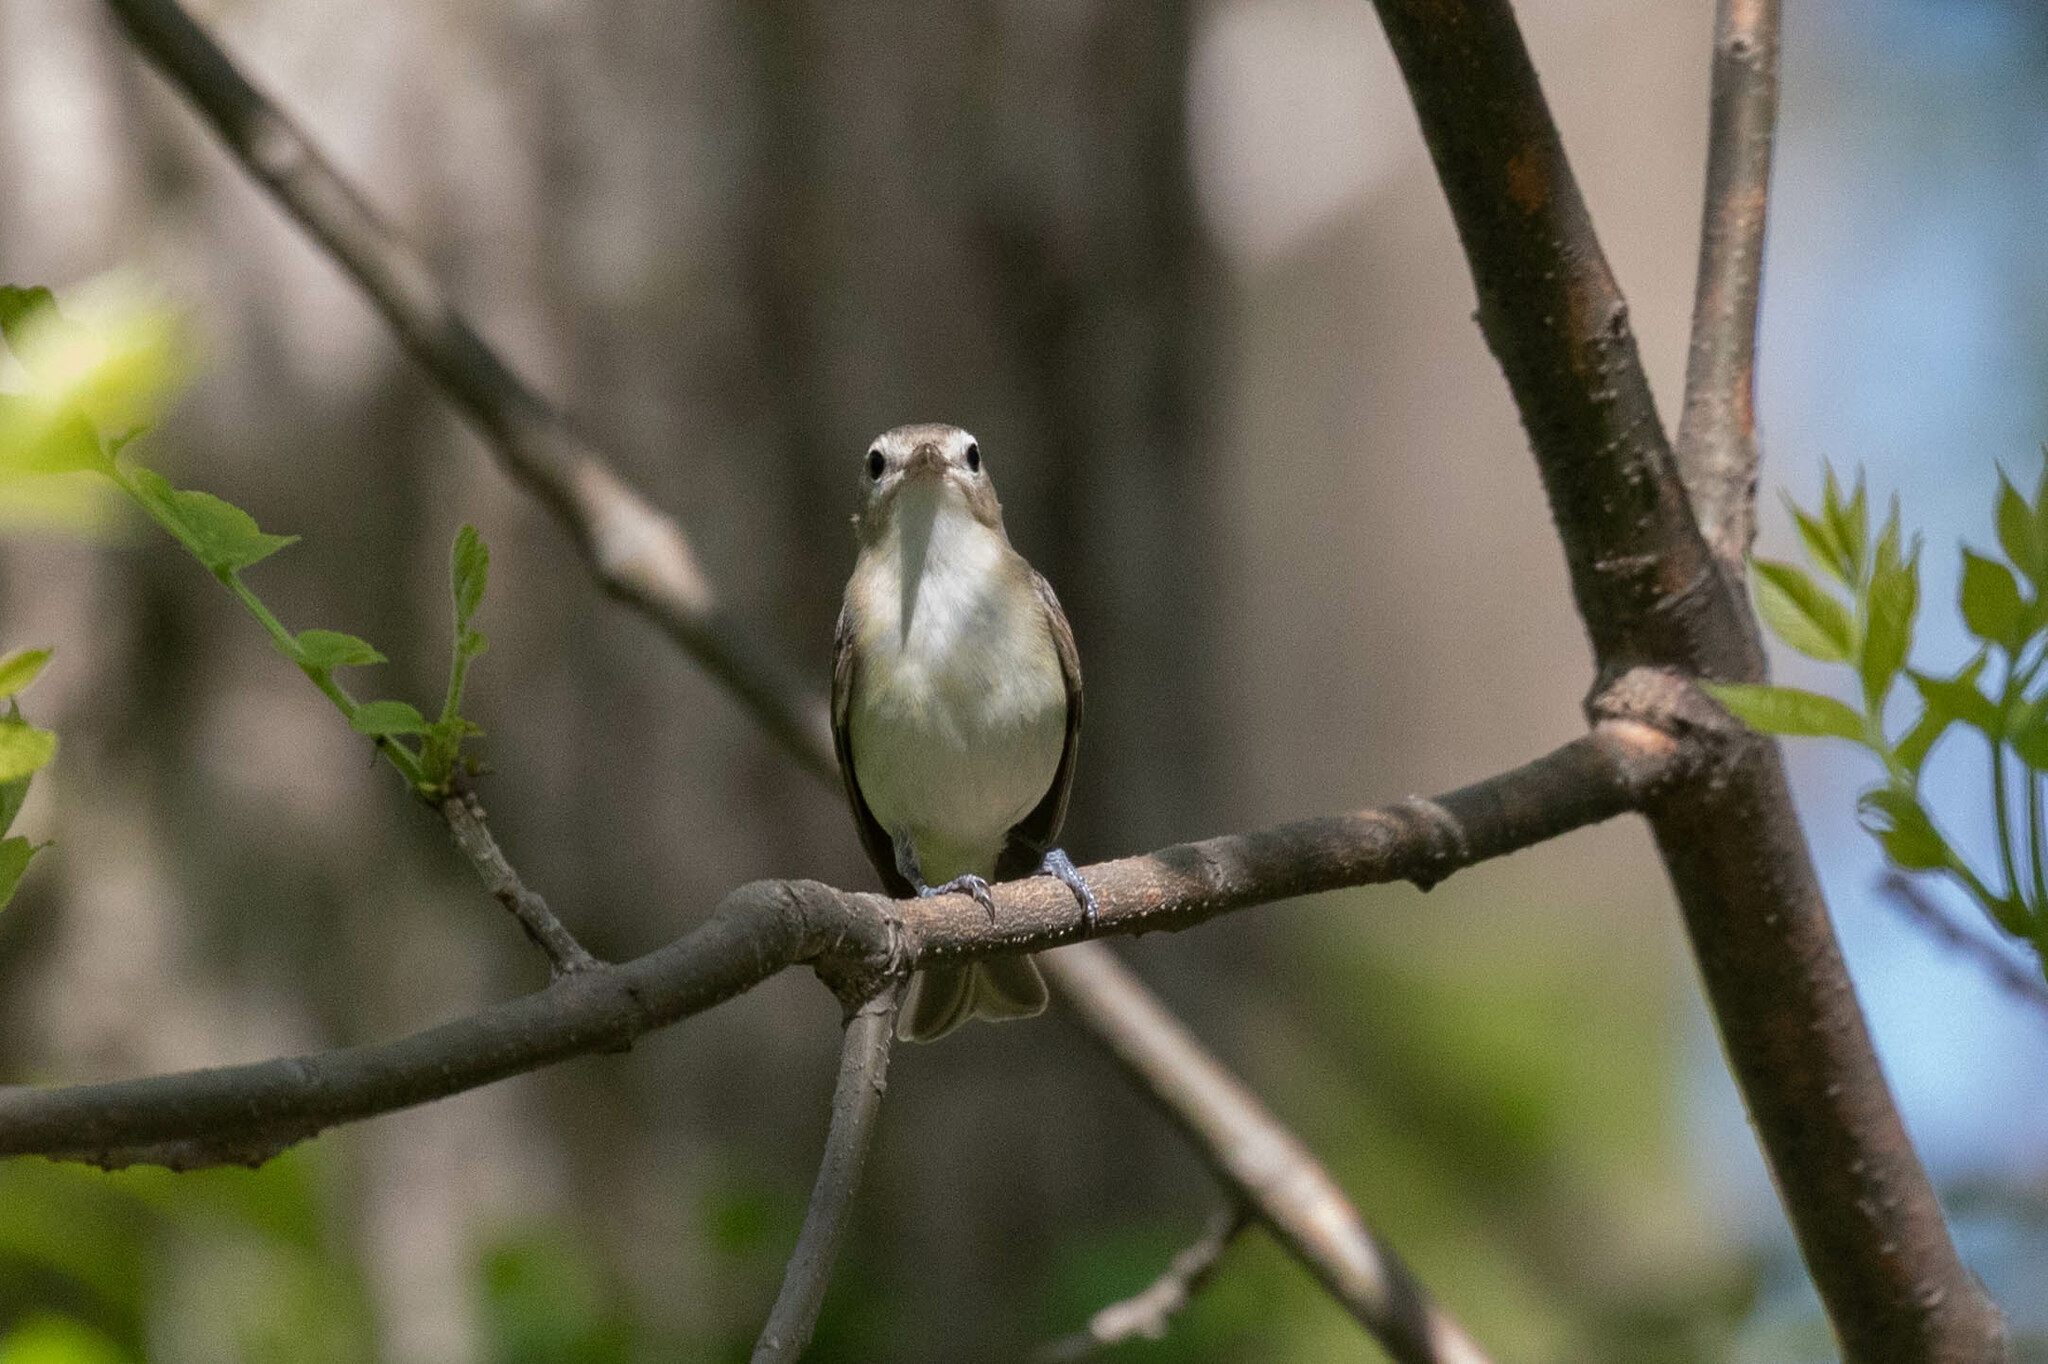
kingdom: Animalia
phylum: Chordata
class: Aves
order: Passeriformes
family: Vireonidae
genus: Vireo
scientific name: Vireo gilvus
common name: Warbling vireo
